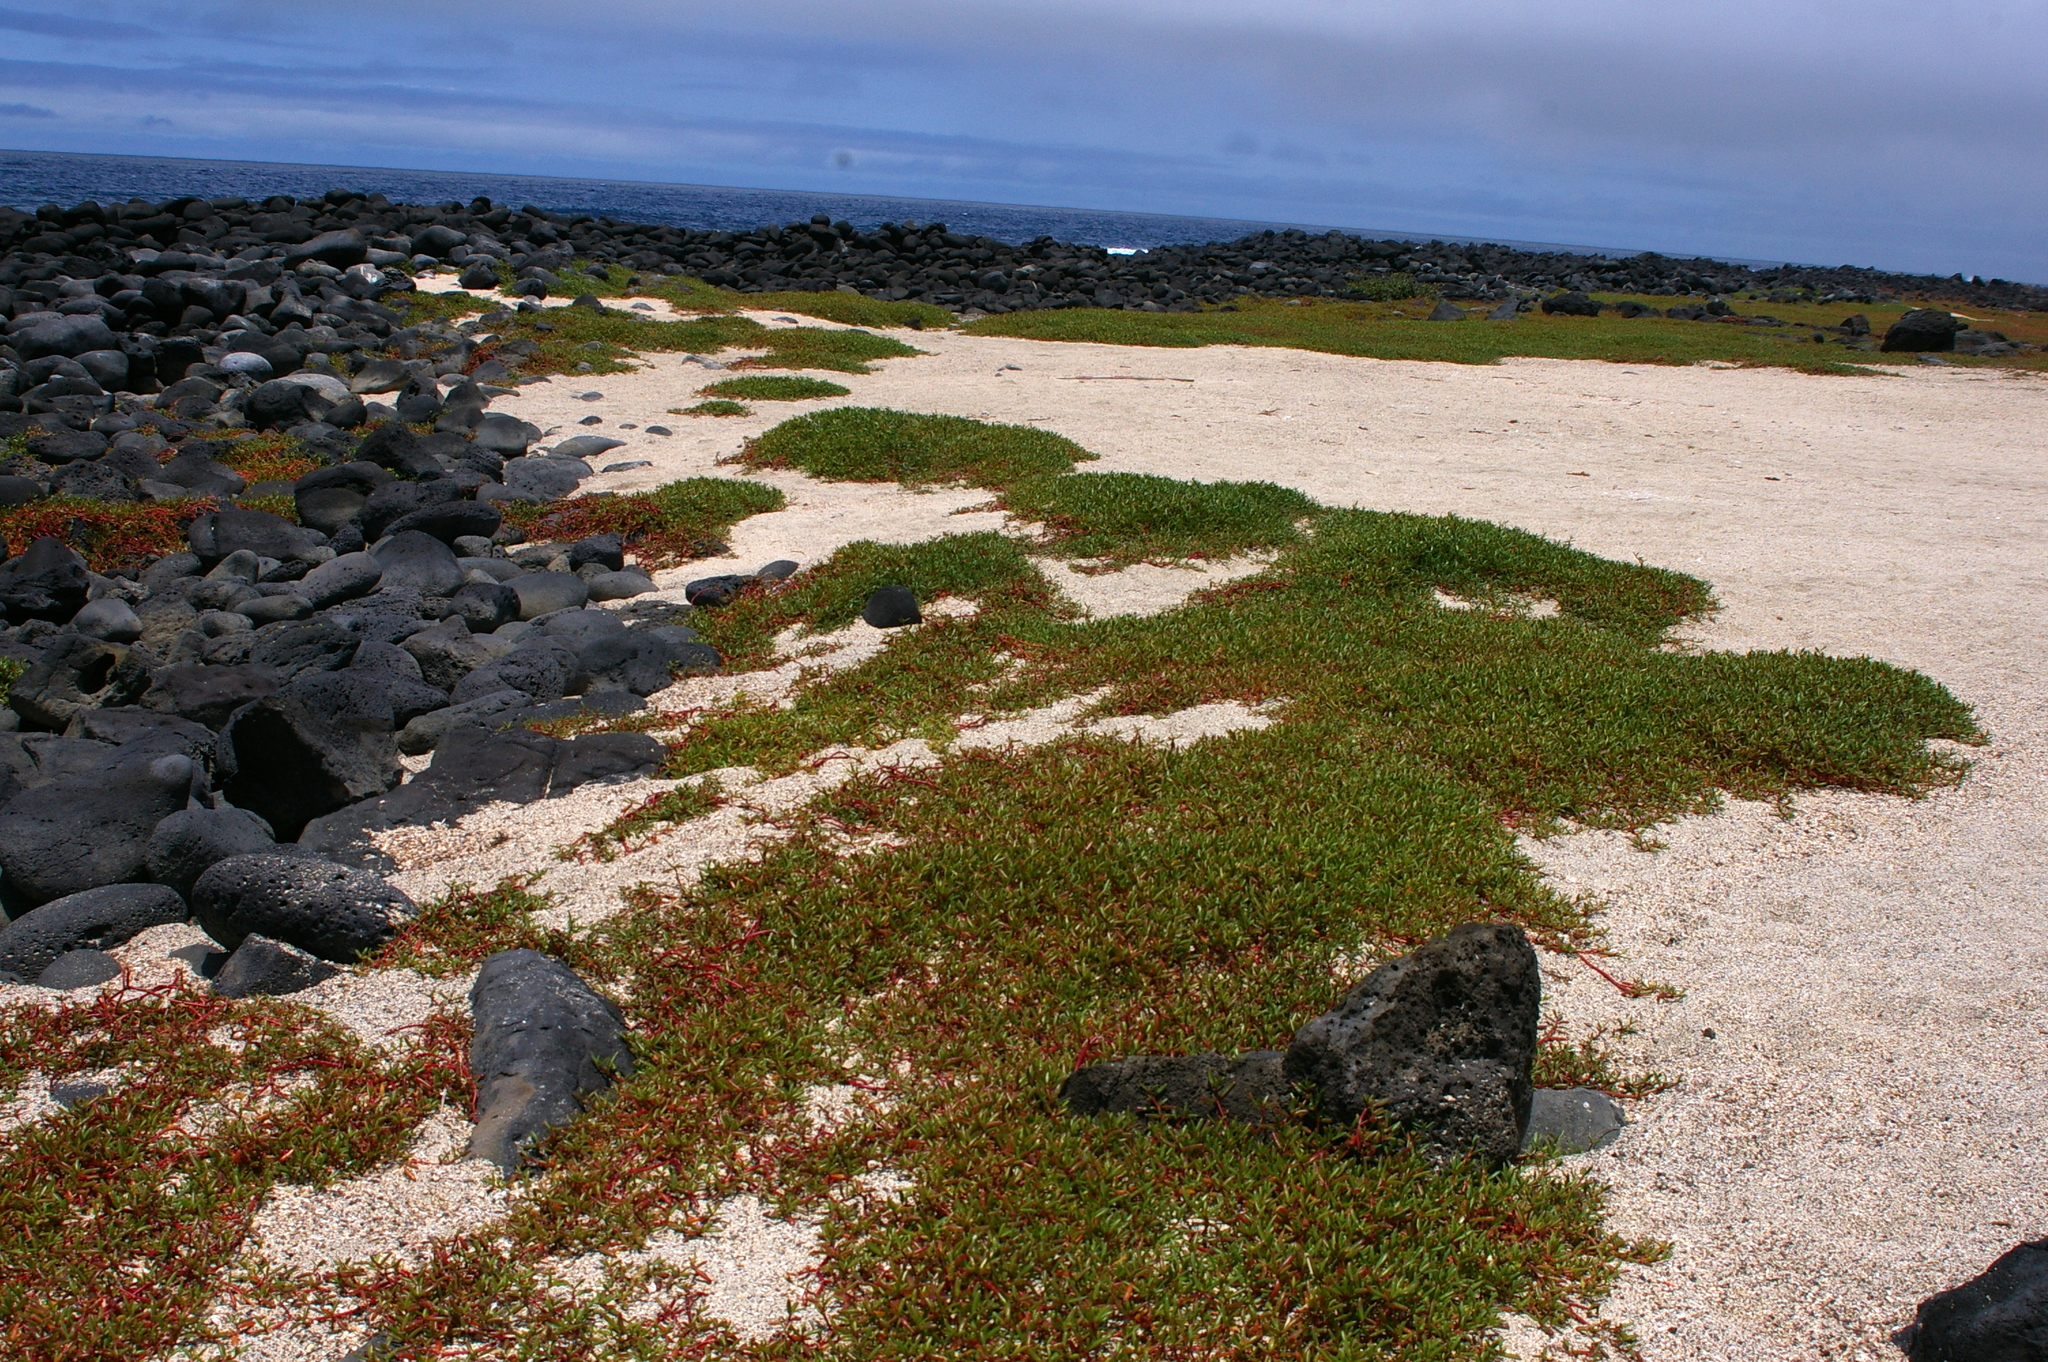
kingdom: Plantae
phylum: Tracheophyta
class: Magnoliopsida
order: Caryophyllales
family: Aizoaceae
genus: Sesuvium
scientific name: Sesuvium edmonstonei
